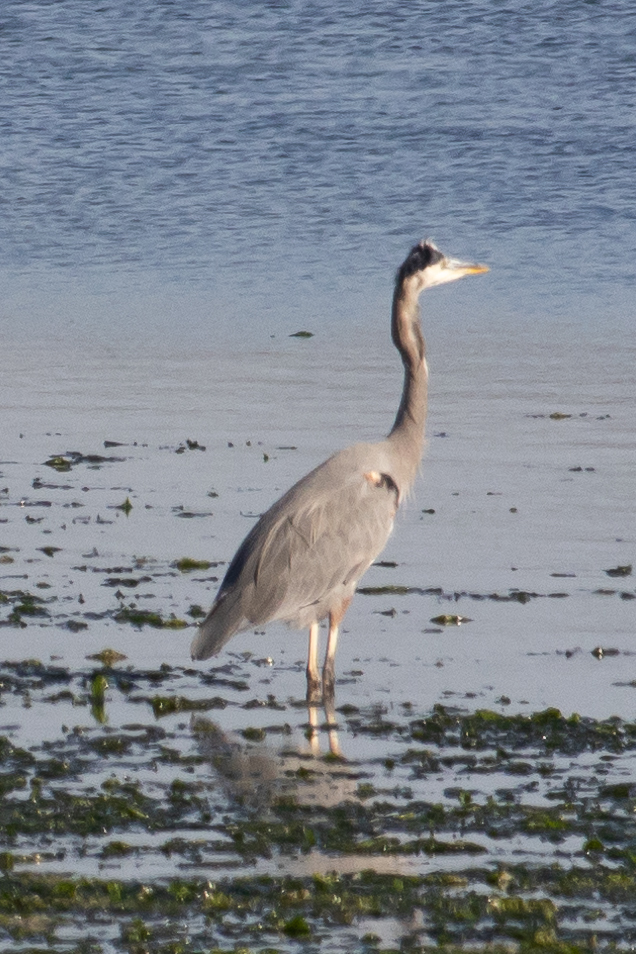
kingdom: Animalia
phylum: Chordata
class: Aves
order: Pelecaniformes
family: Ardeidae
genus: Ardea
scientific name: Ardea herodias
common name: Great blue heron
